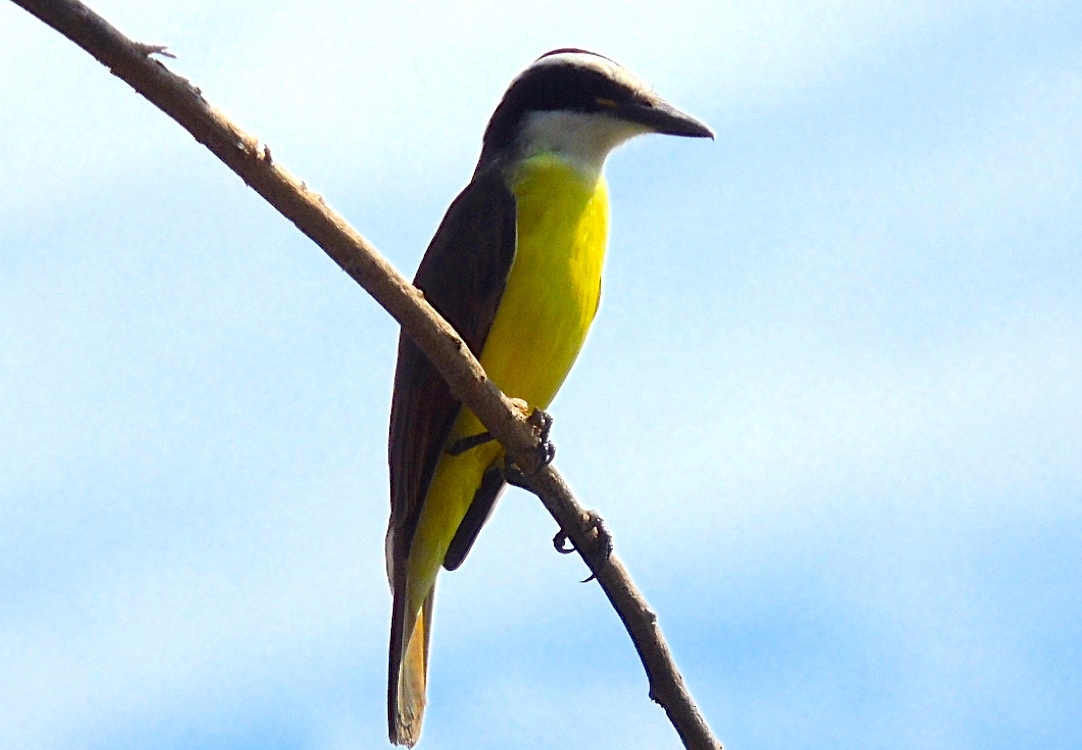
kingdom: Animalia
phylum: Chordata
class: Aves
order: Passeriformes
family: Tyrannidae
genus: Pitangus
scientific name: Pitangus sulphuratus
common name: Great kiskadee
